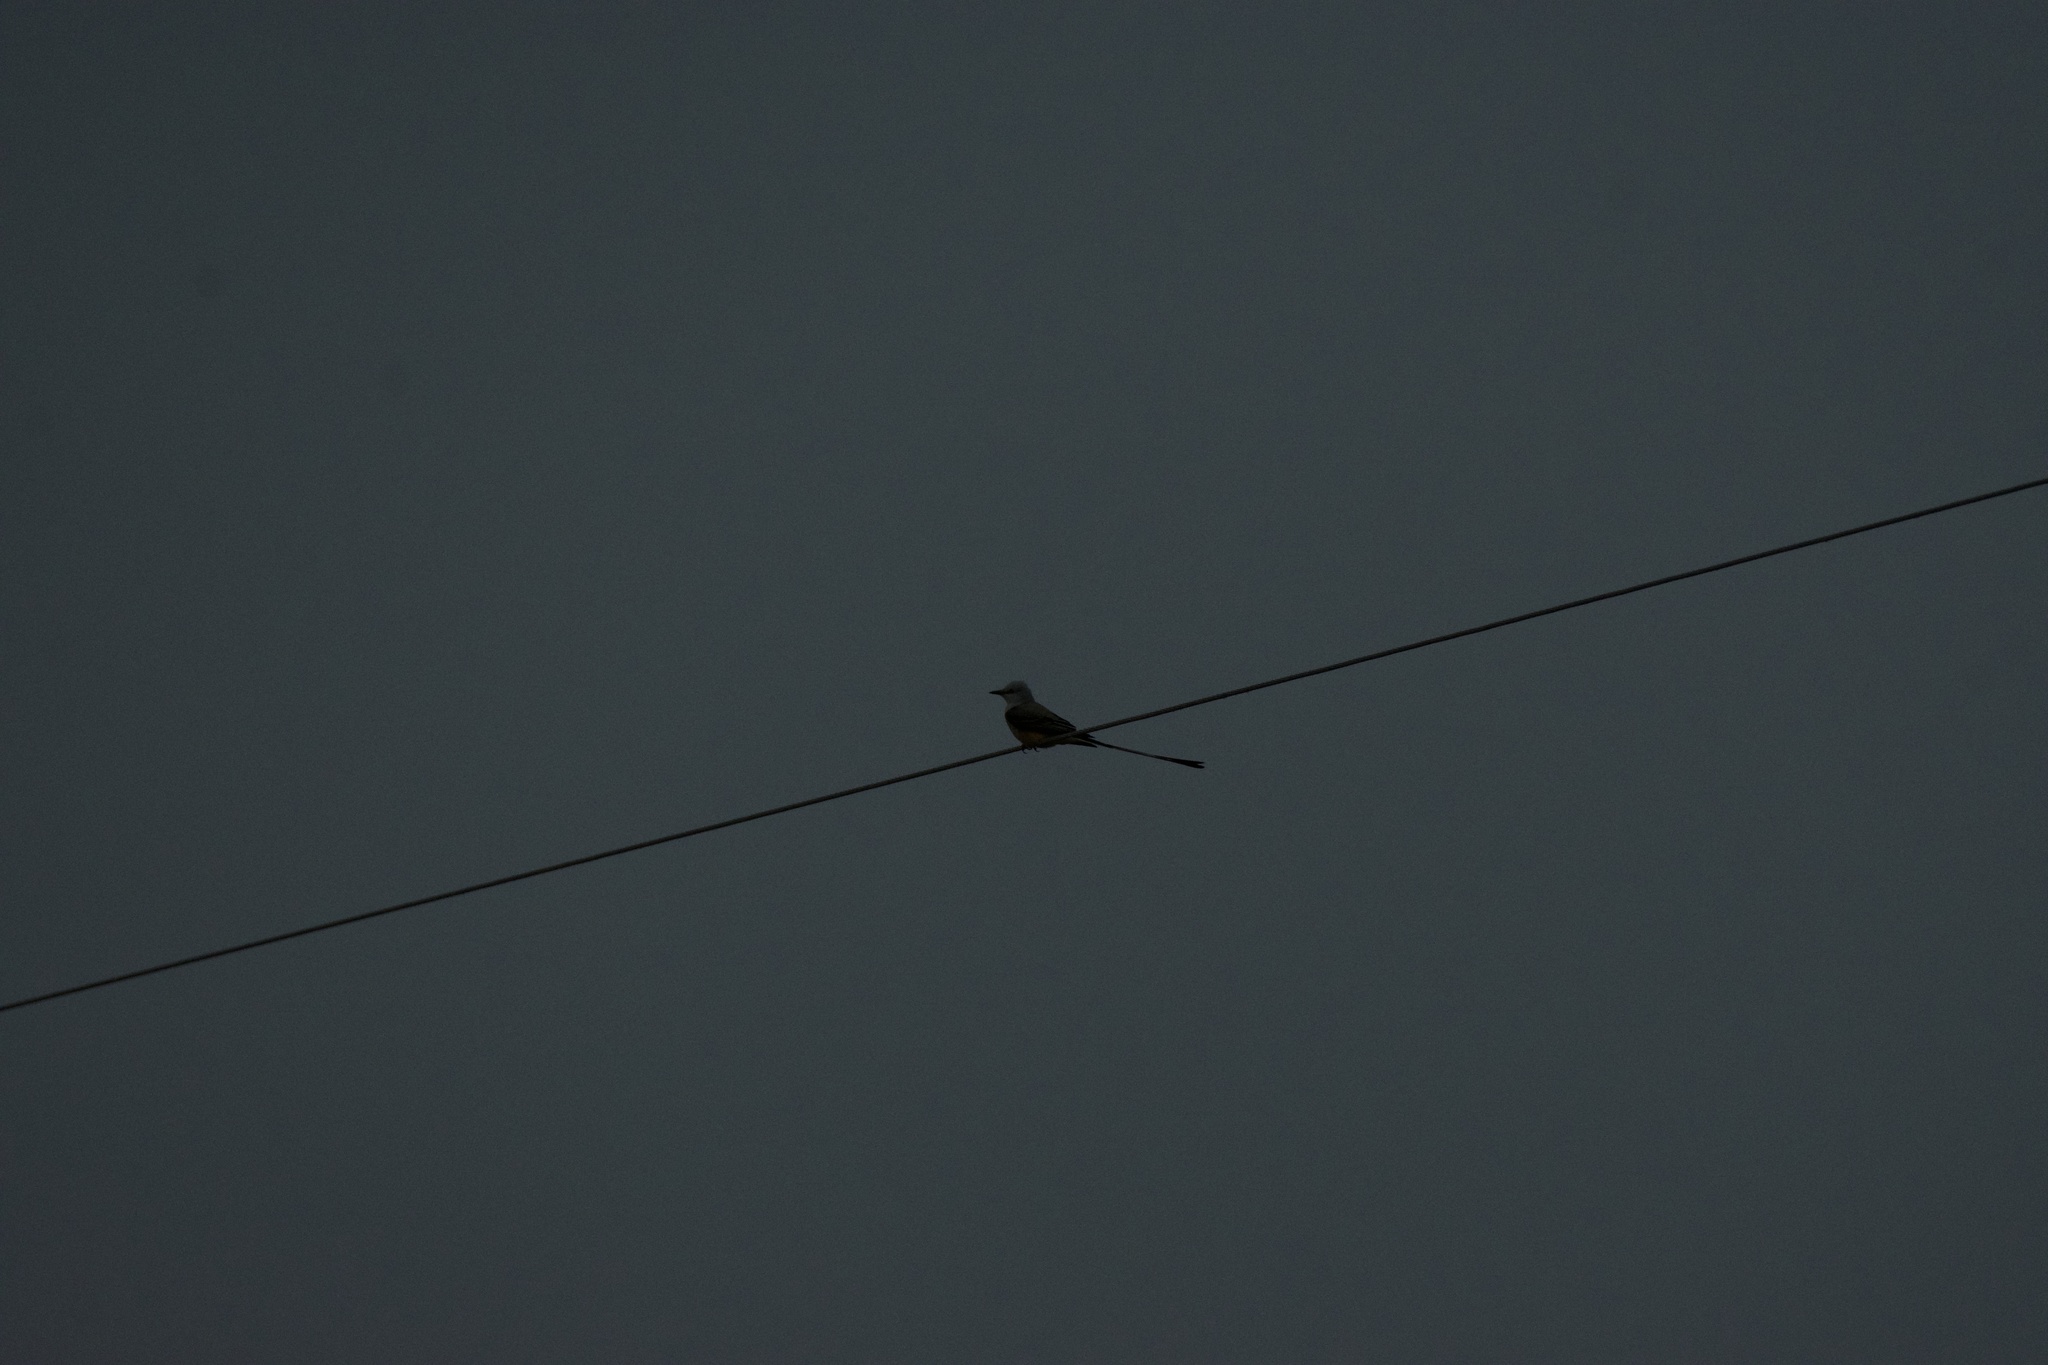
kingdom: Animalia
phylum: Chordata
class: Aves
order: Passeriformes
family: Tyrannidae
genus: Tyrannus
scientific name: Tyrannus forficatus
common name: Scissor-tailed flycatcher
